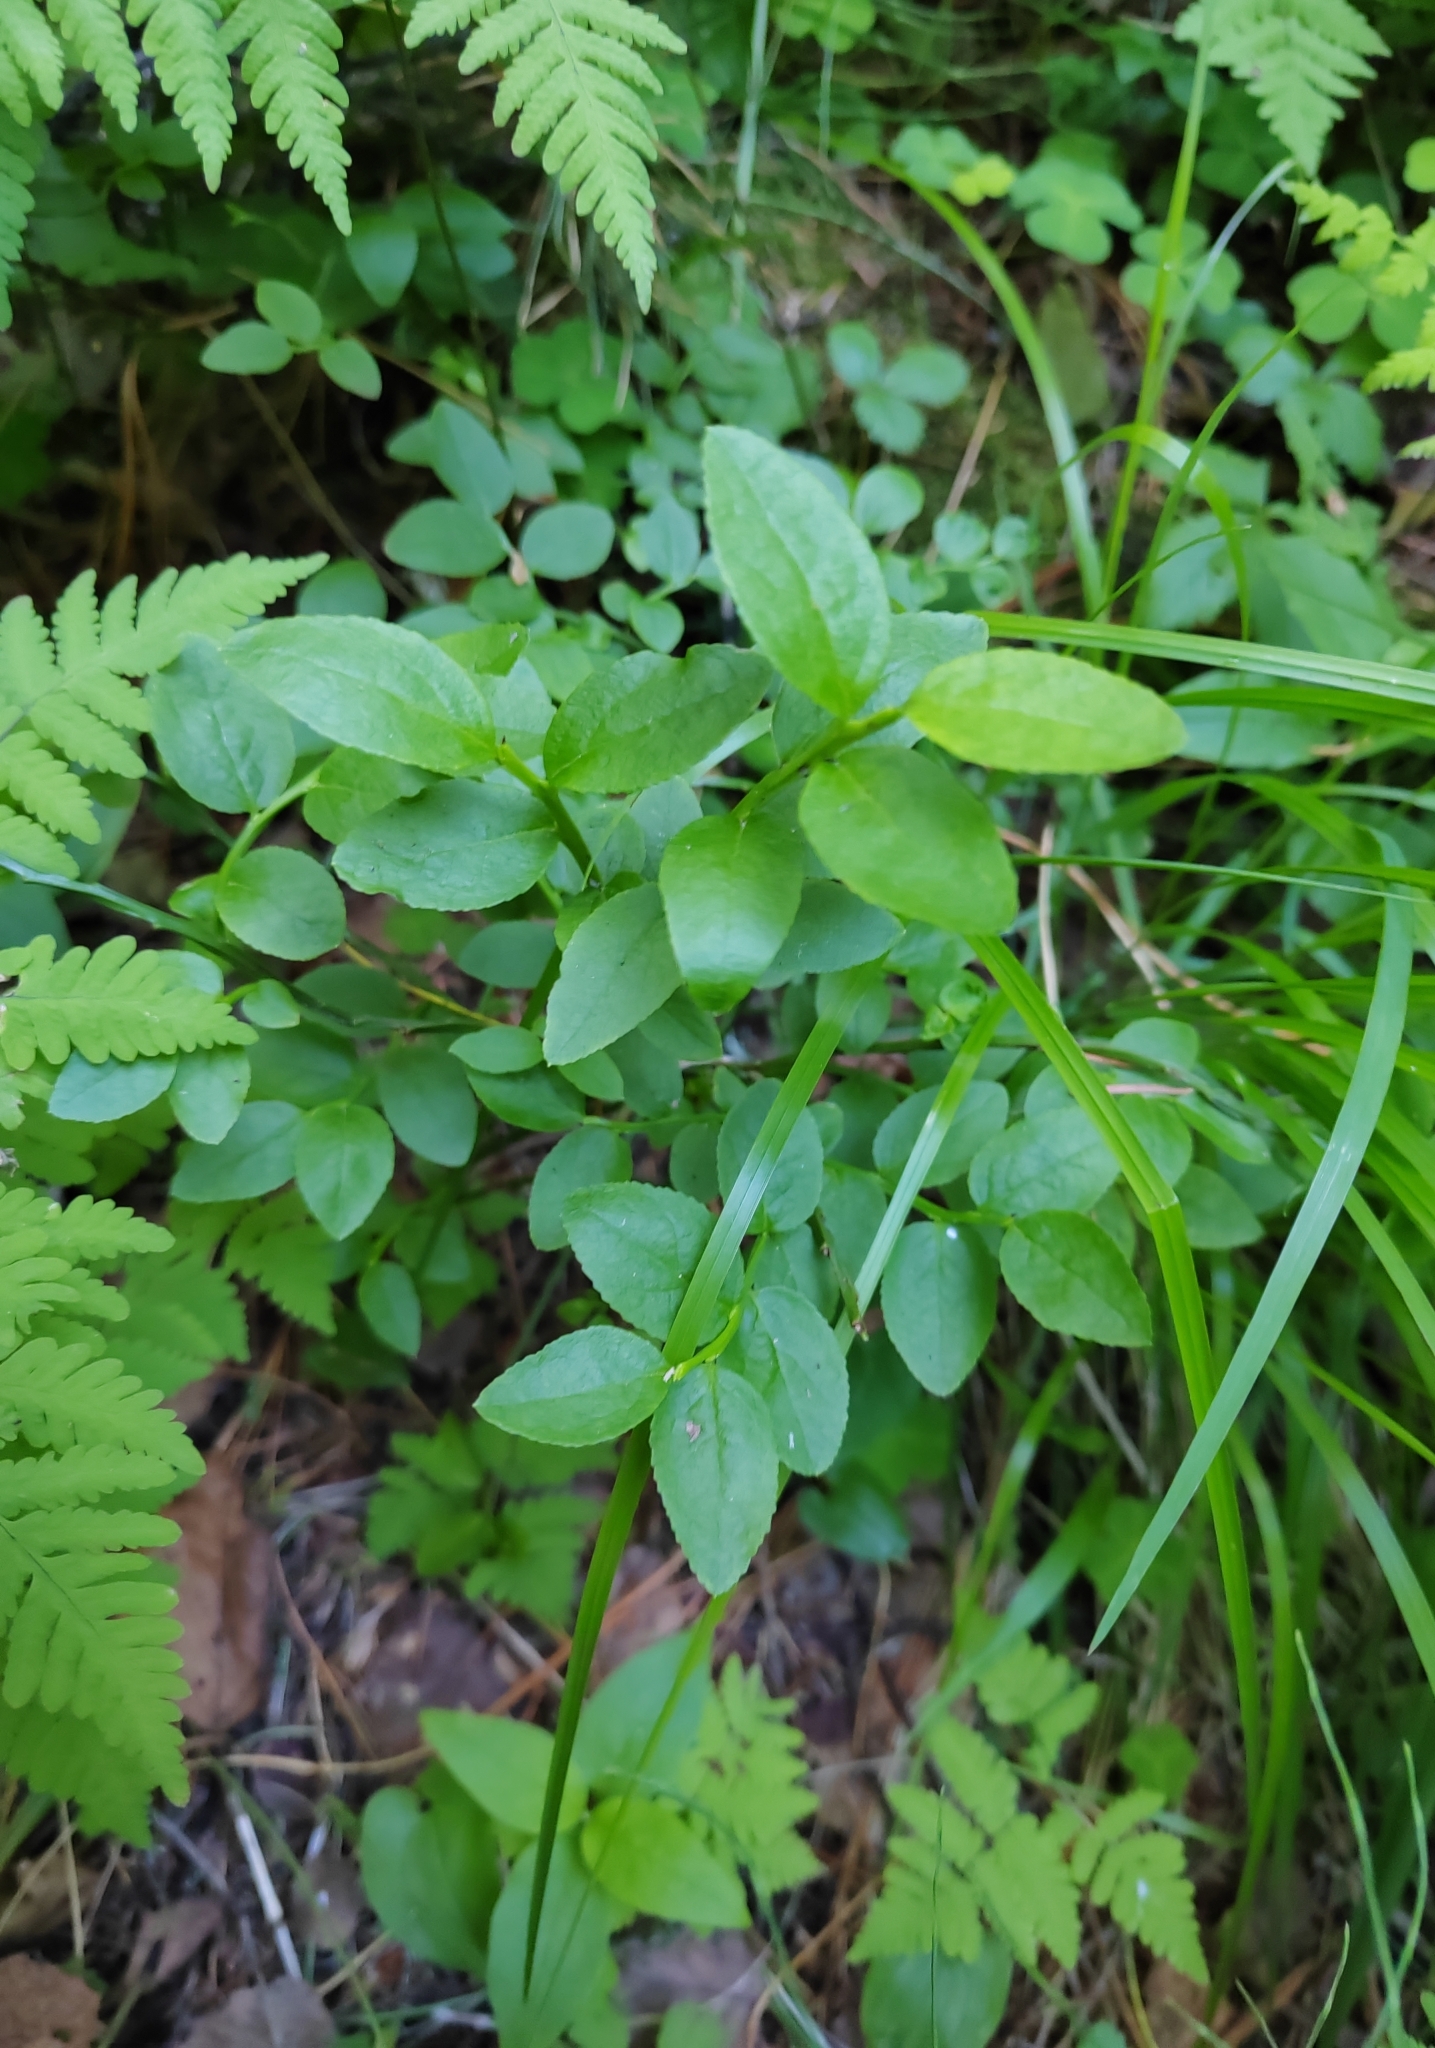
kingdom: Plantae
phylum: Tracheophyta
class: Magnoliopsida
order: Ericales
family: Ericaceae
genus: Vaccinium
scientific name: Vaccinium myrtillus
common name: Bilberry
